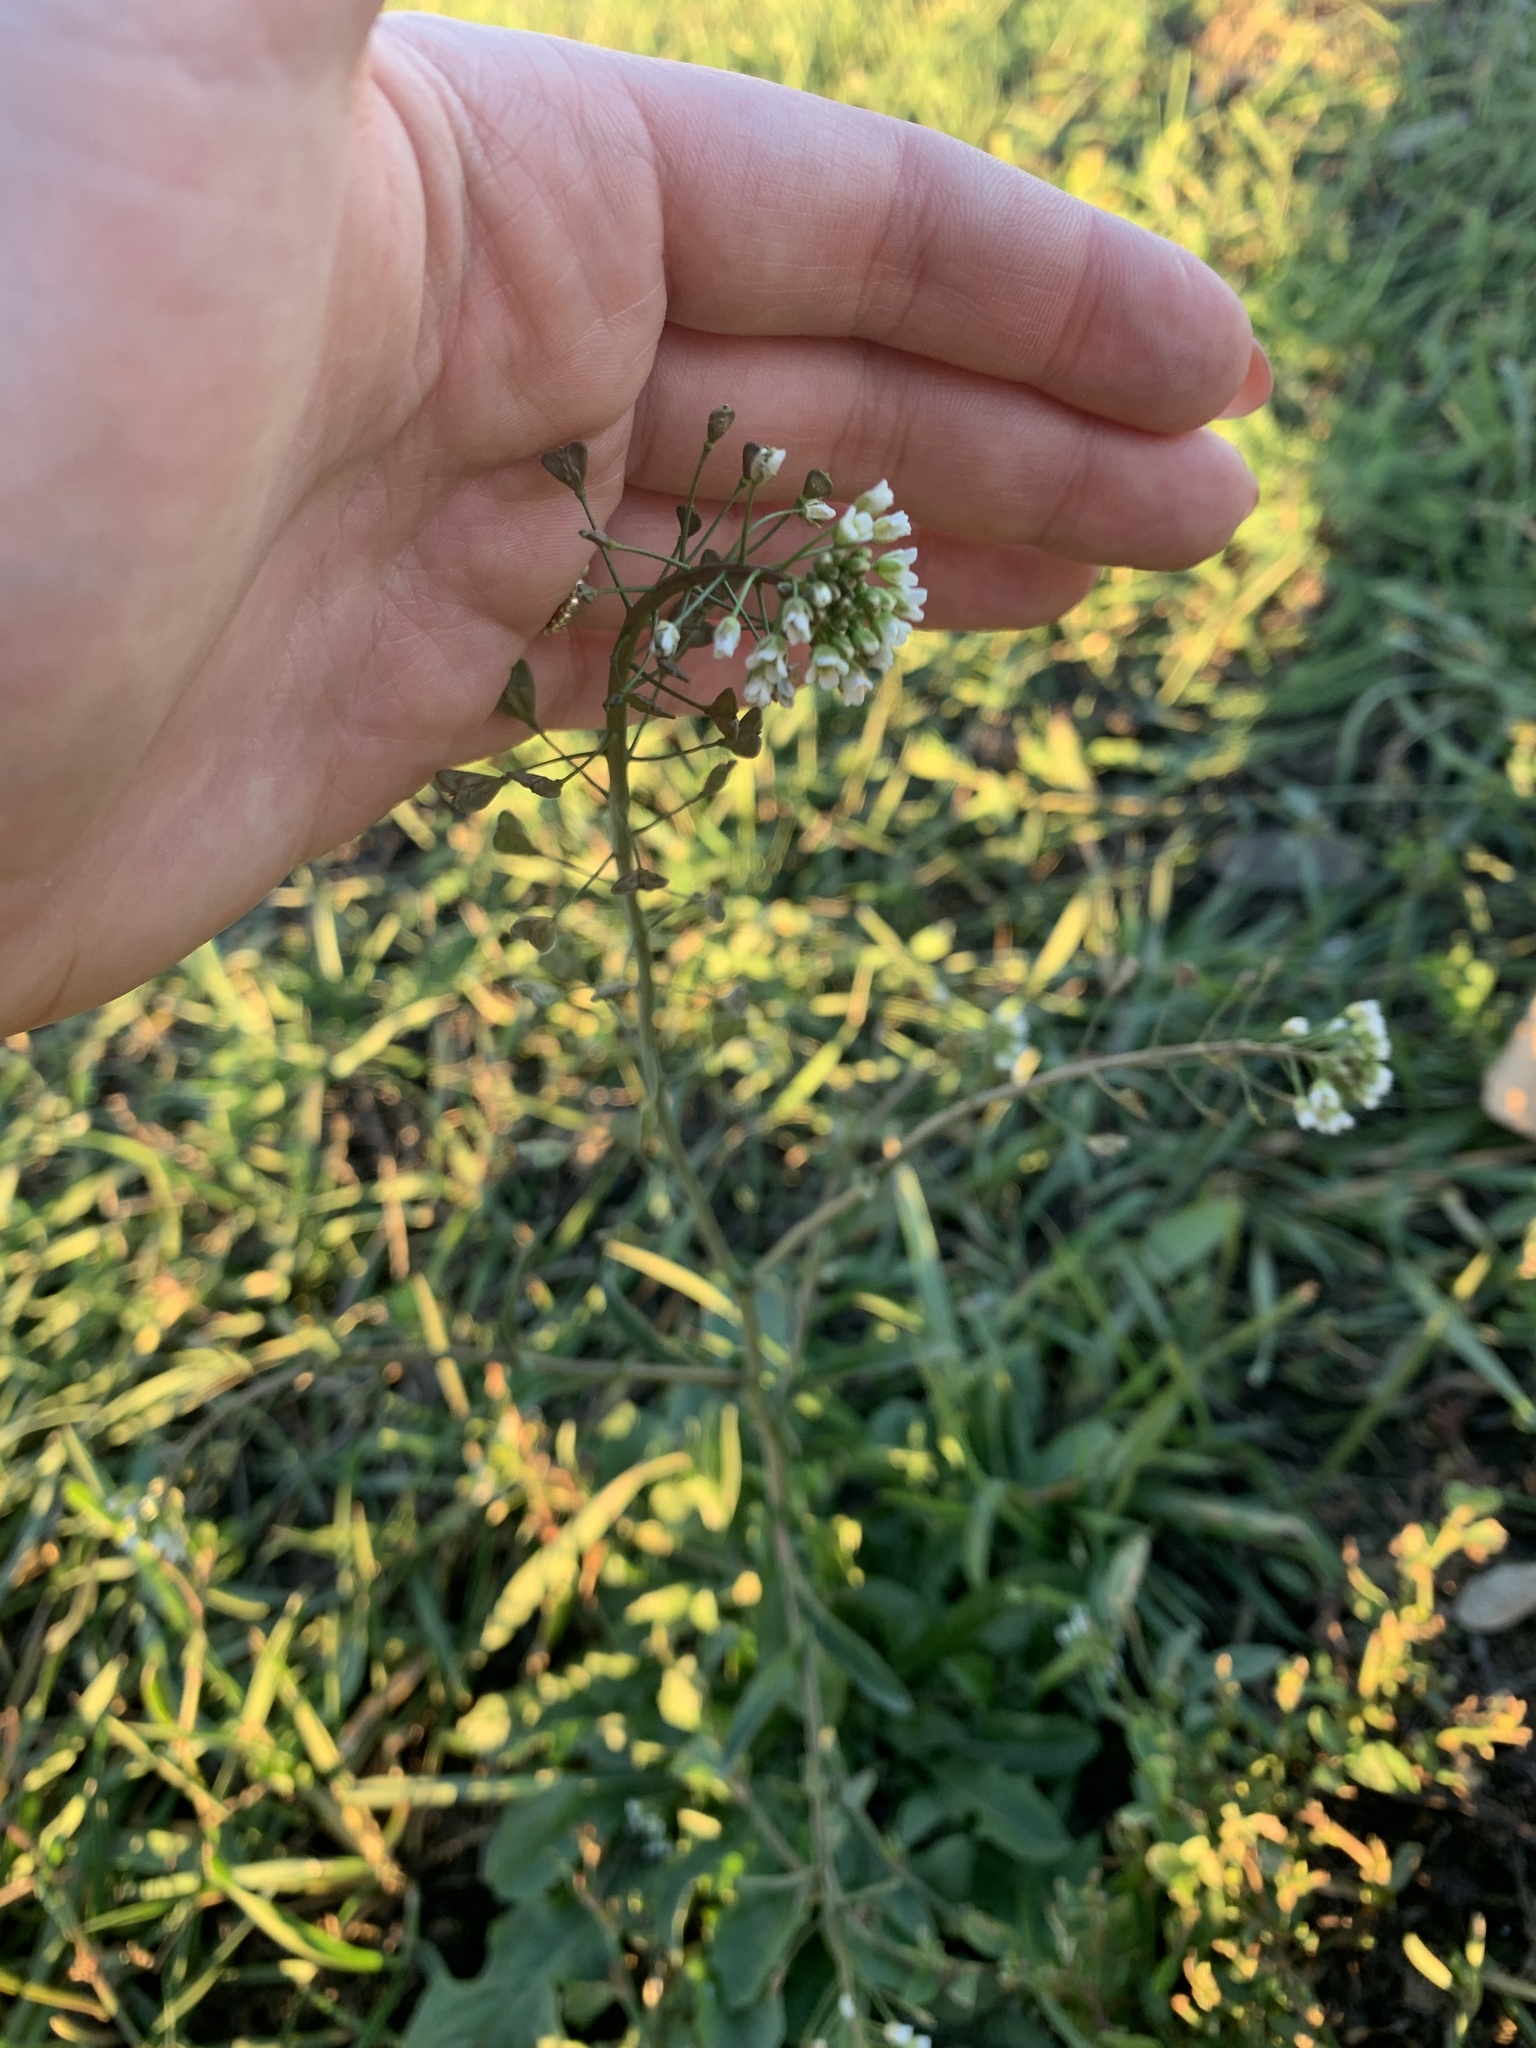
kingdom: Plantae
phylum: Tracheophyta
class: Magnoliopsida
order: Brassicales
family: Brassicaceae
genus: Capsella
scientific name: Capsella bursa-pastoris
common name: Shepherd's purse
